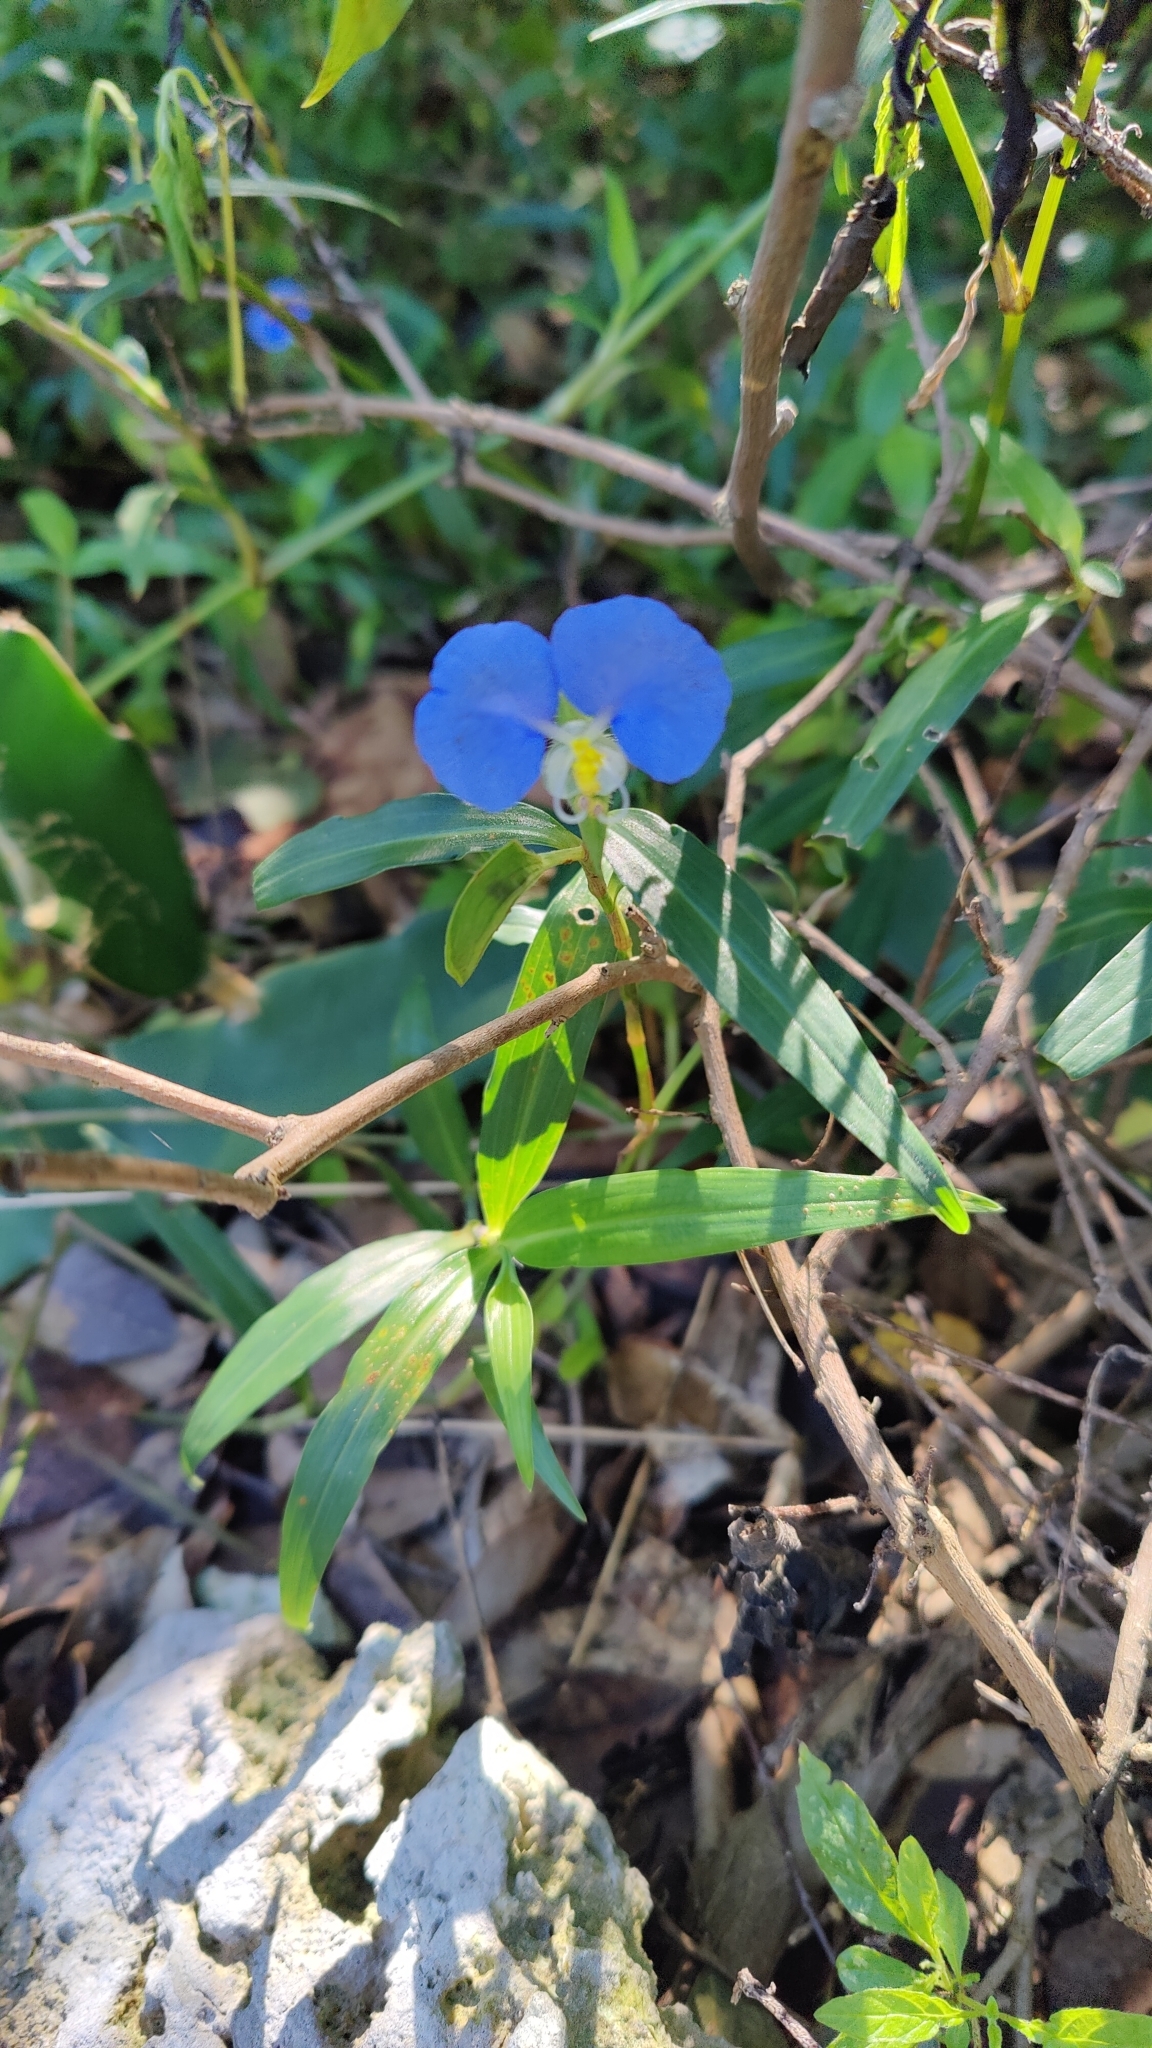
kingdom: Plantae
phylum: Tracheophyta
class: Liliopsida
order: Commelinales
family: Commelinaceae
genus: Commelina
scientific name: Commelina erecta
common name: Blousel blommetjie
